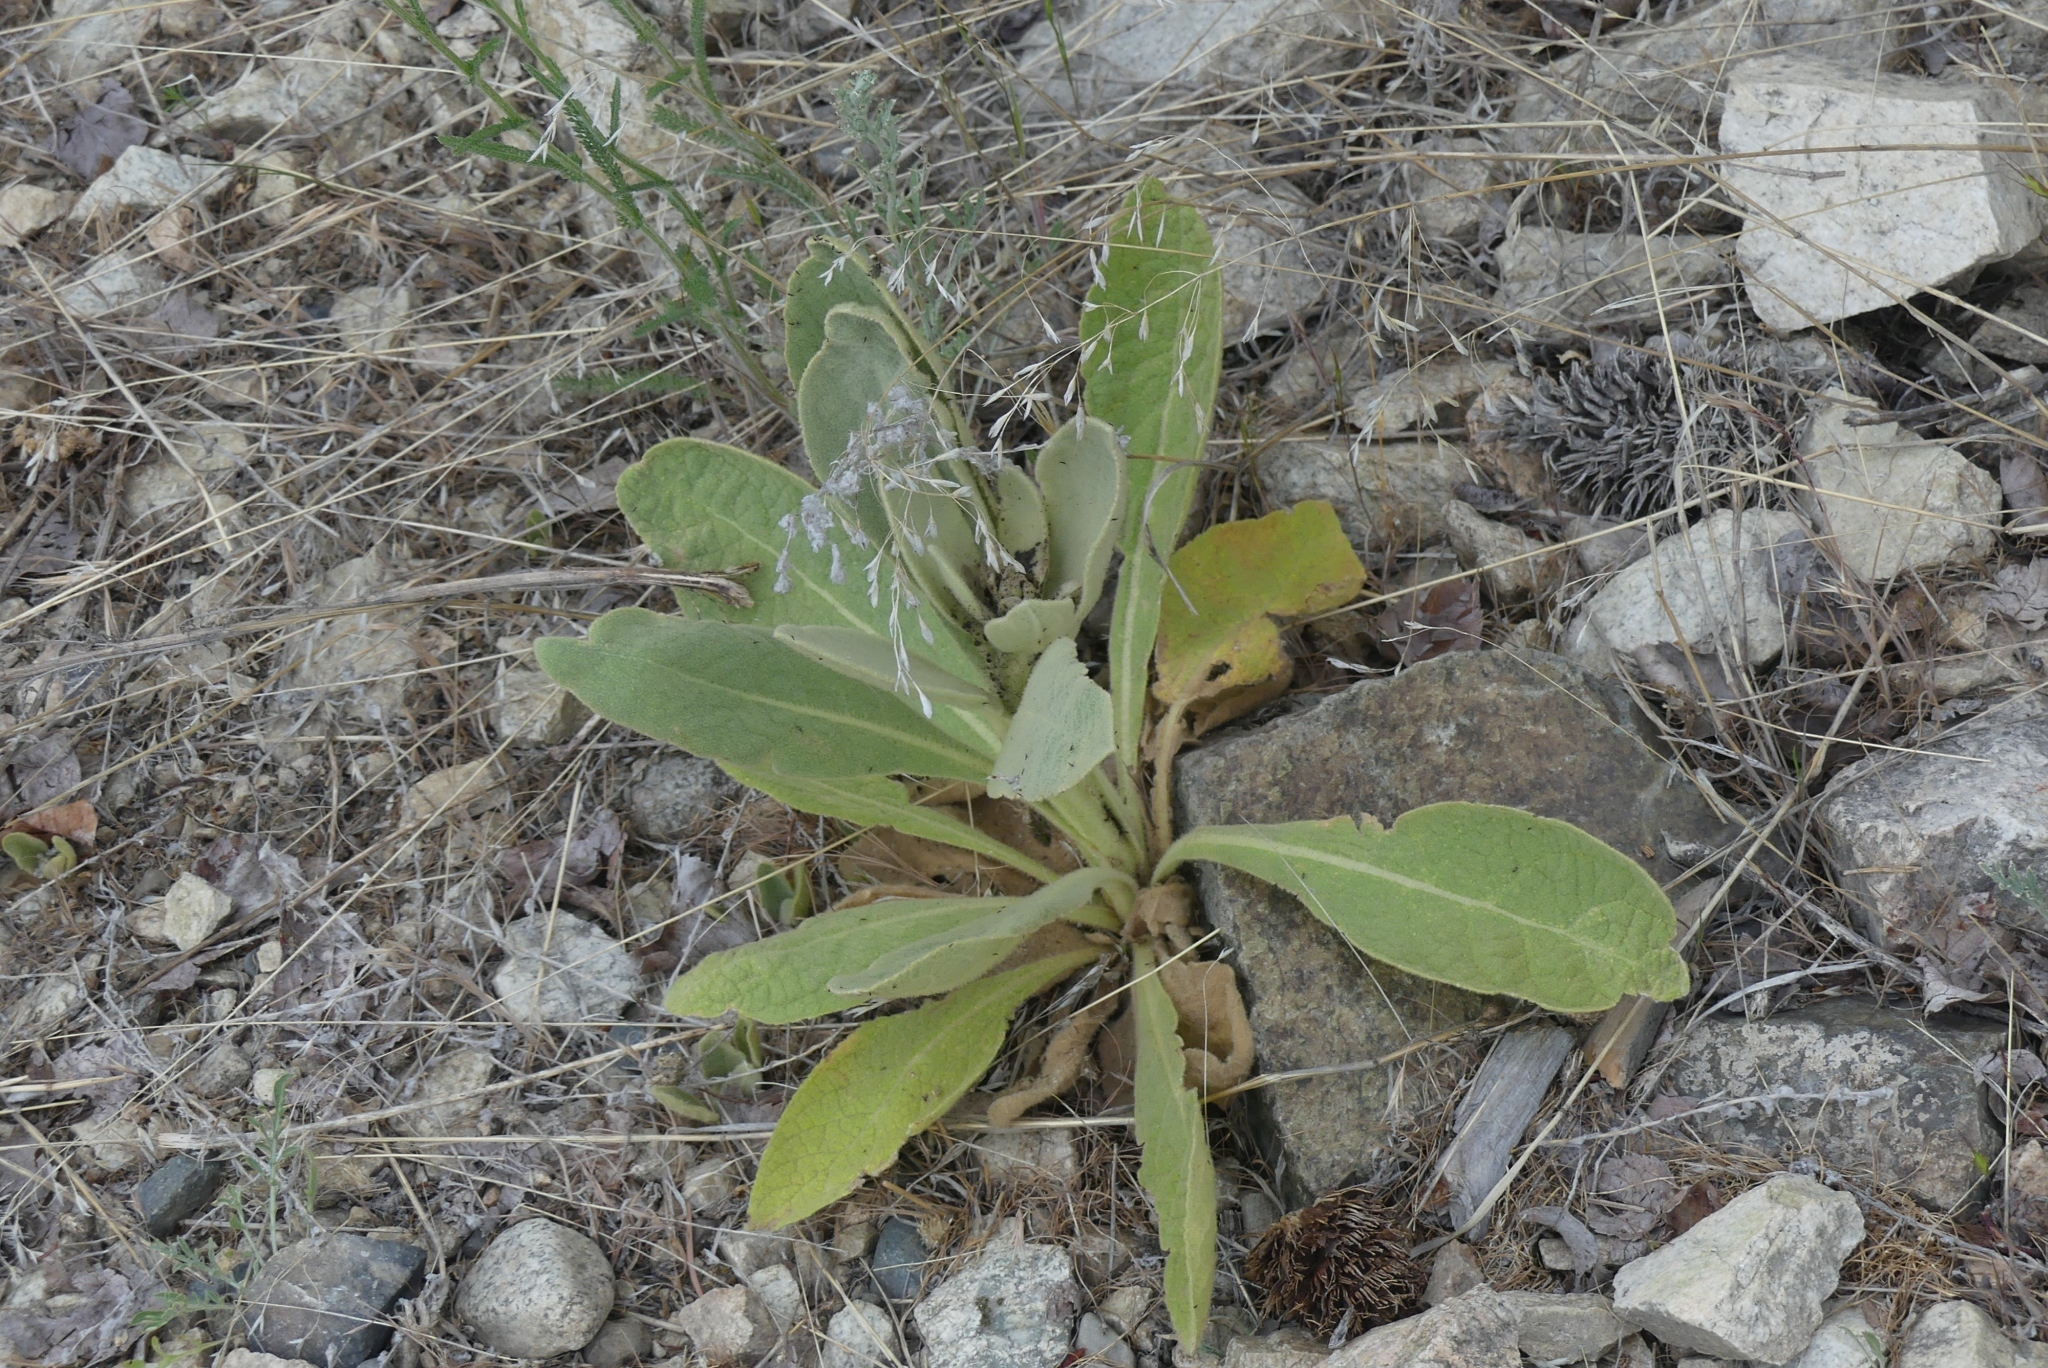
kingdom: Plantae
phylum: Tracheophyta
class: Magnoliopsida
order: Lamiales
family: Scrophulariaceae
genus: Verbascum
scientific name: Verbascum thapsus
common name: Common mullein
